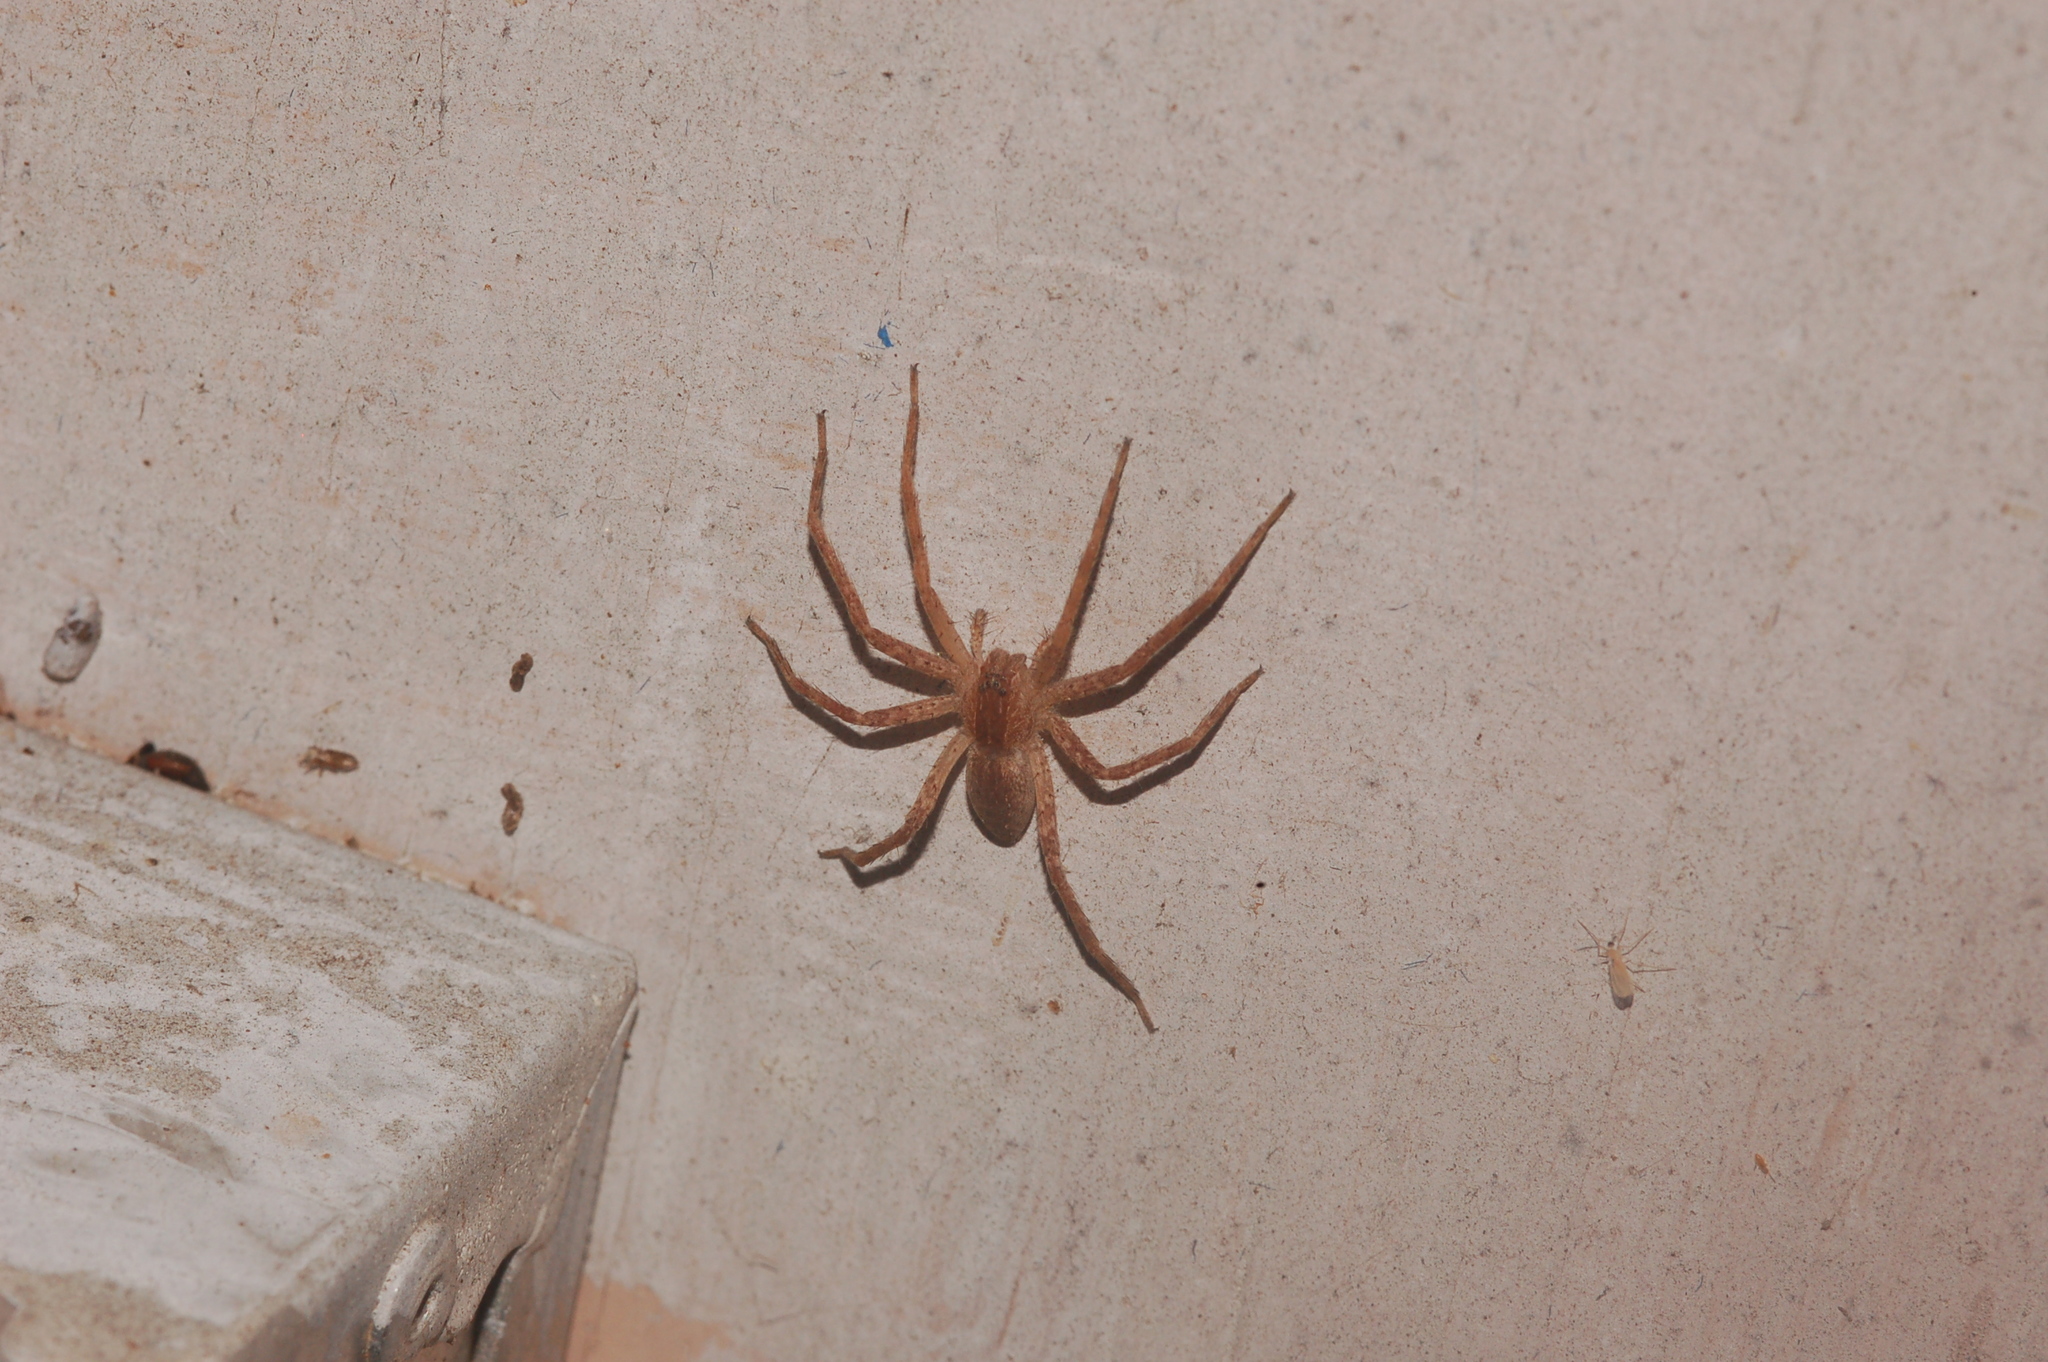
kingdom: Animalia
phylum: Arthropoda
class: Arachnida
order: Araneae
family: Pisauridae
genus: Pisaurina
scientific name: Pisaurina mira
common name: American nursery web spider
